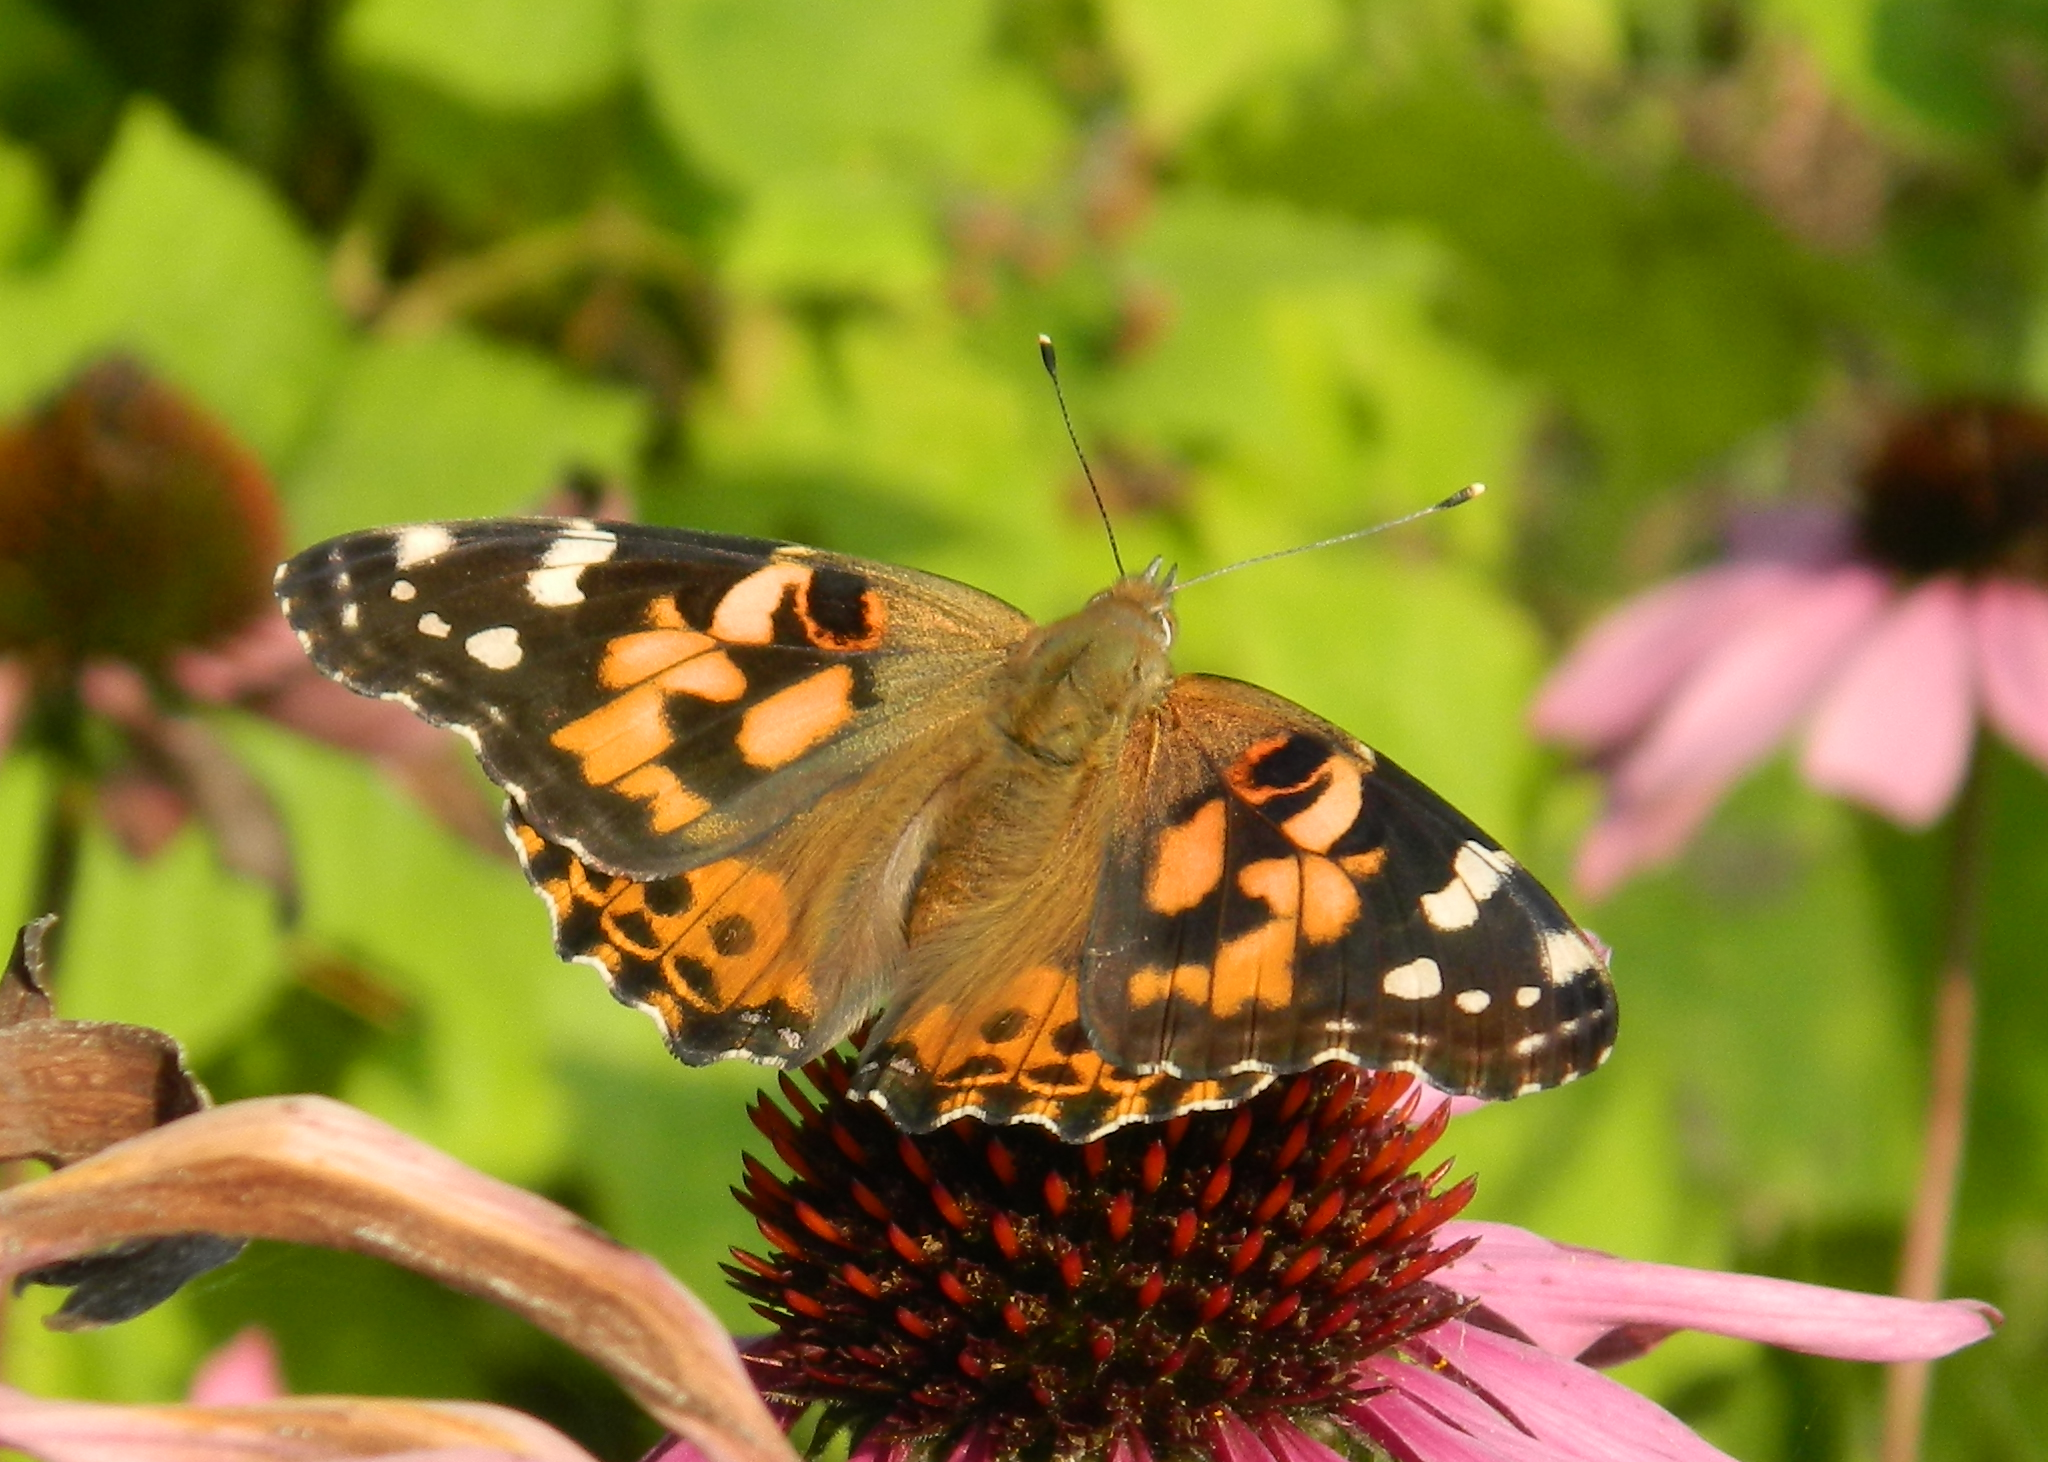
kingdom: Animalia
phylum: Arthropoda
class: Insecta
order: Lepidoptera
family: Nymphalidae
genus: Vanessa
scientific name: Vanessa cardui
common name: Painted lady
